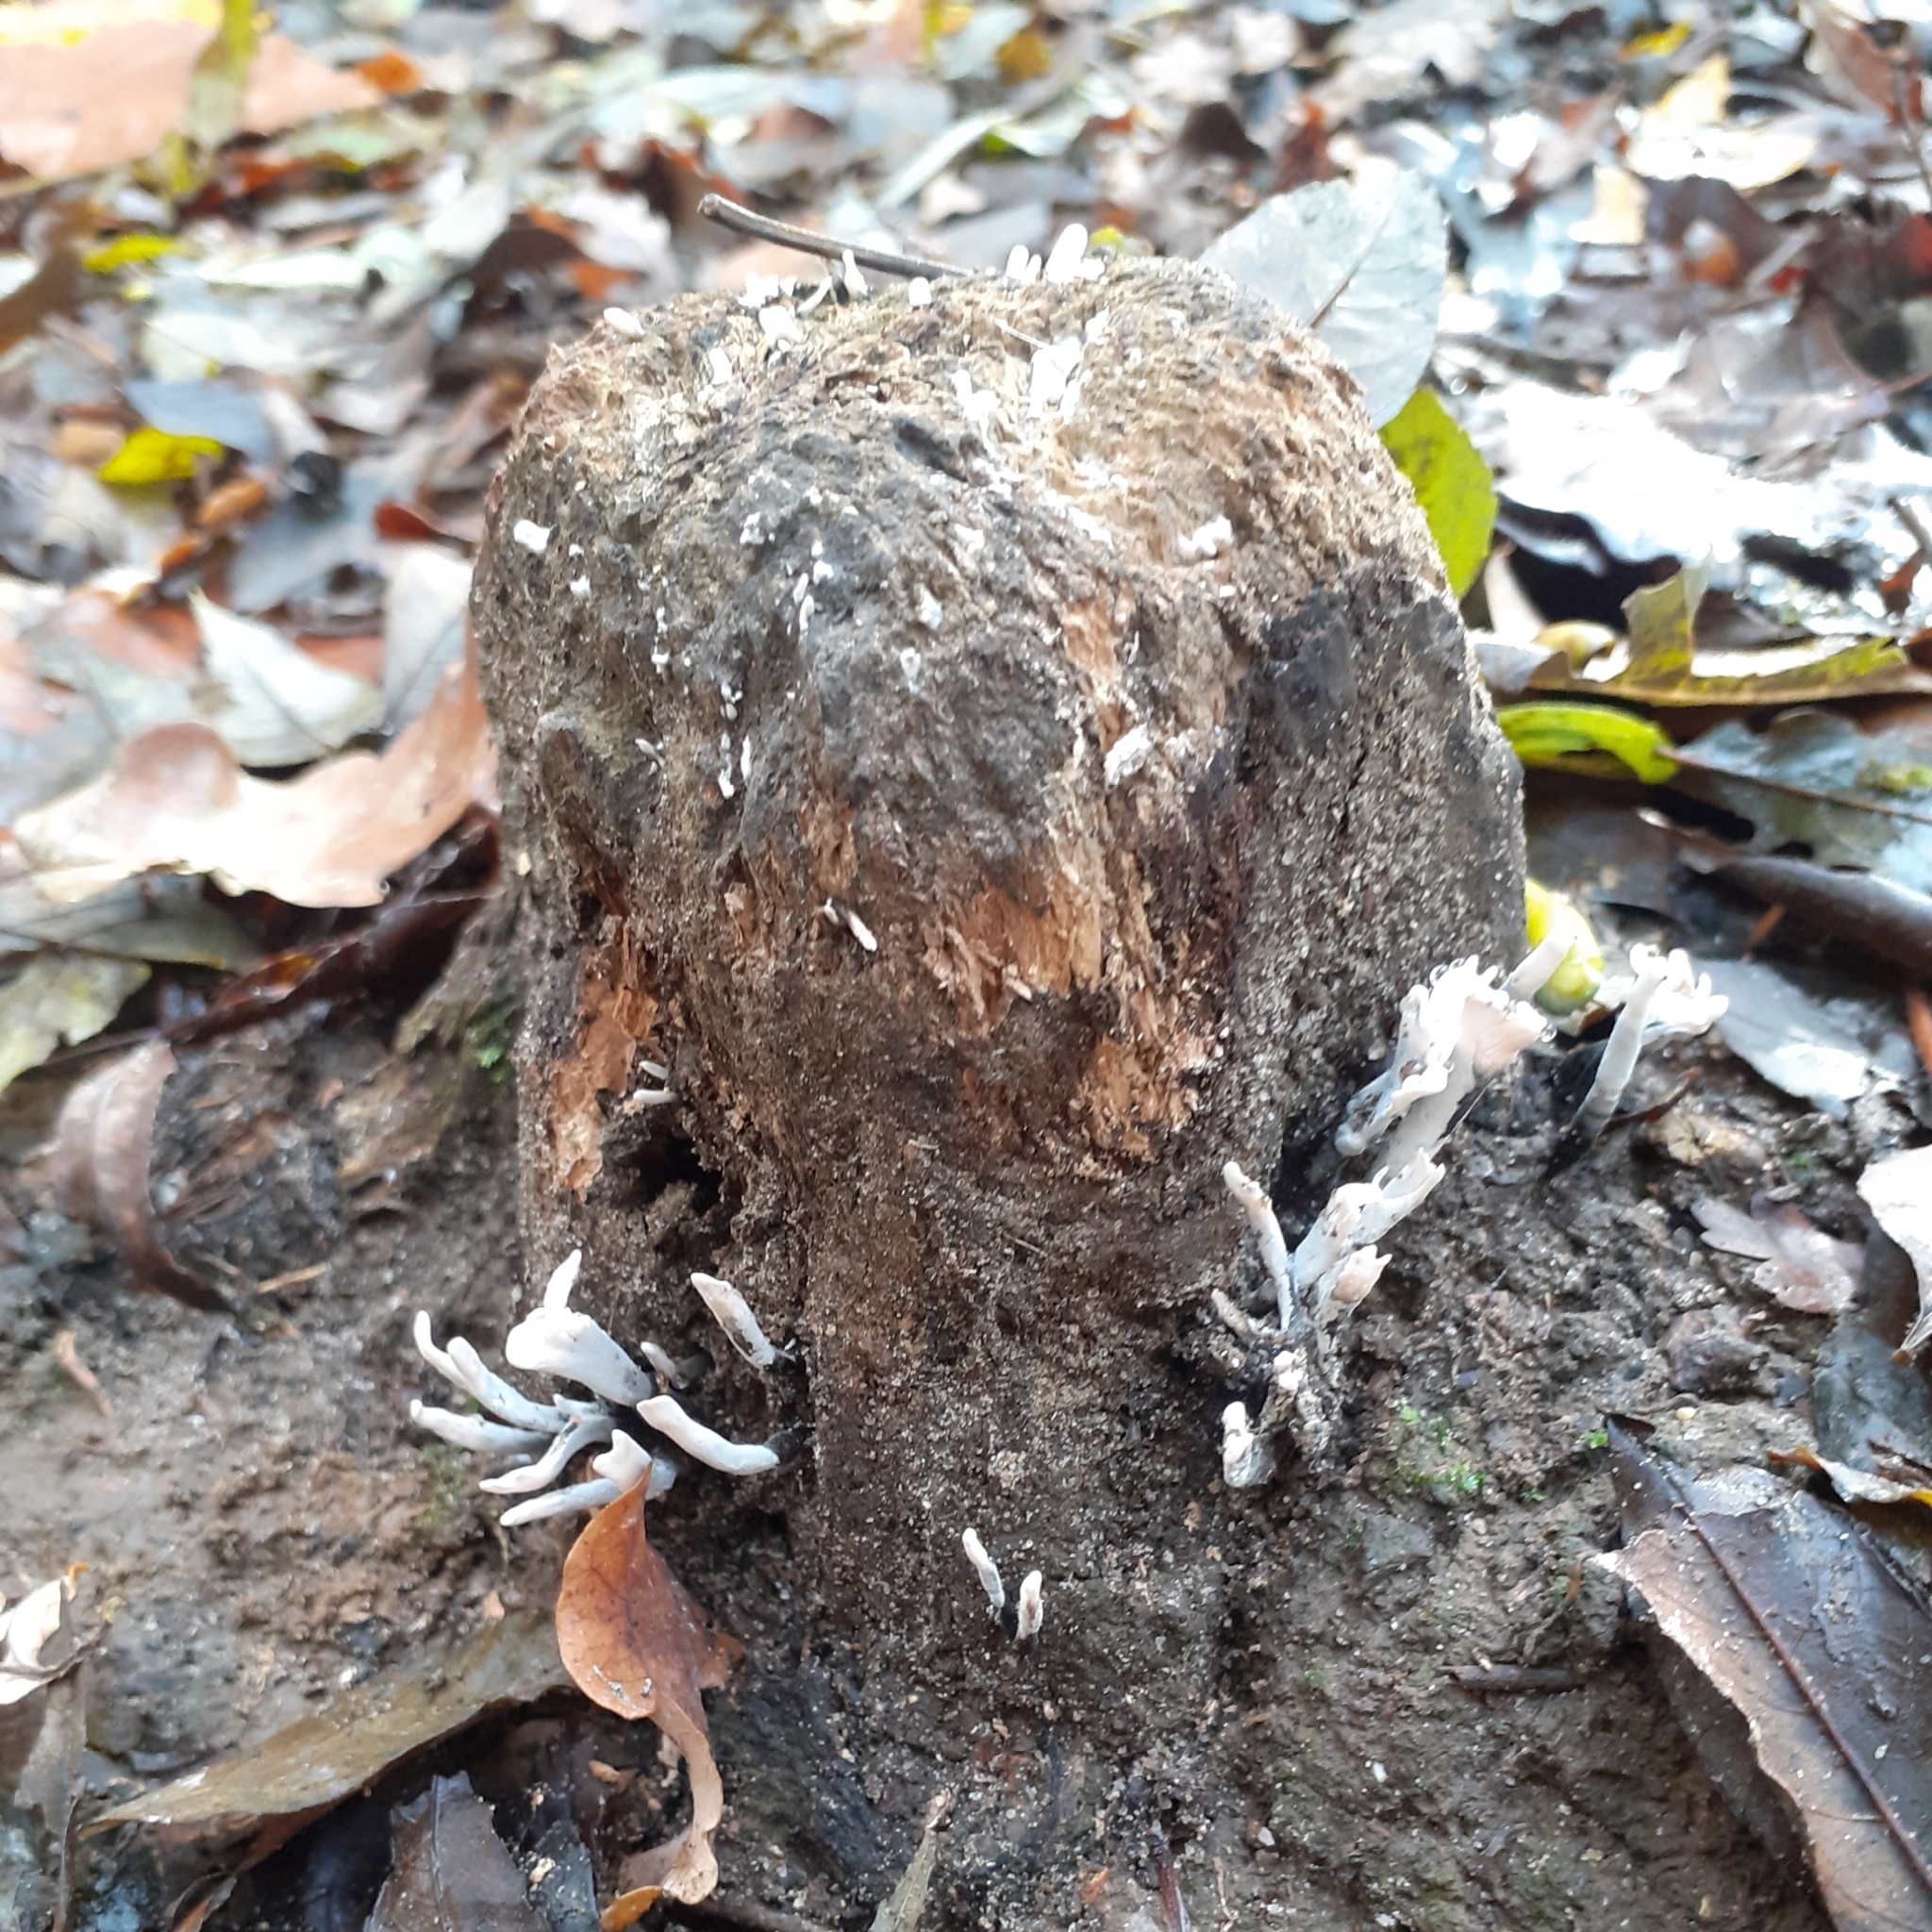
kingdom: Fungi
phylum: Ascomycota
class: Sordariomycetes
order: Xylariales
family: Xylariaceae
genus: Xylaria
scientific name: Xylaria hypoxylon
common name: Candle-snuff fungus
